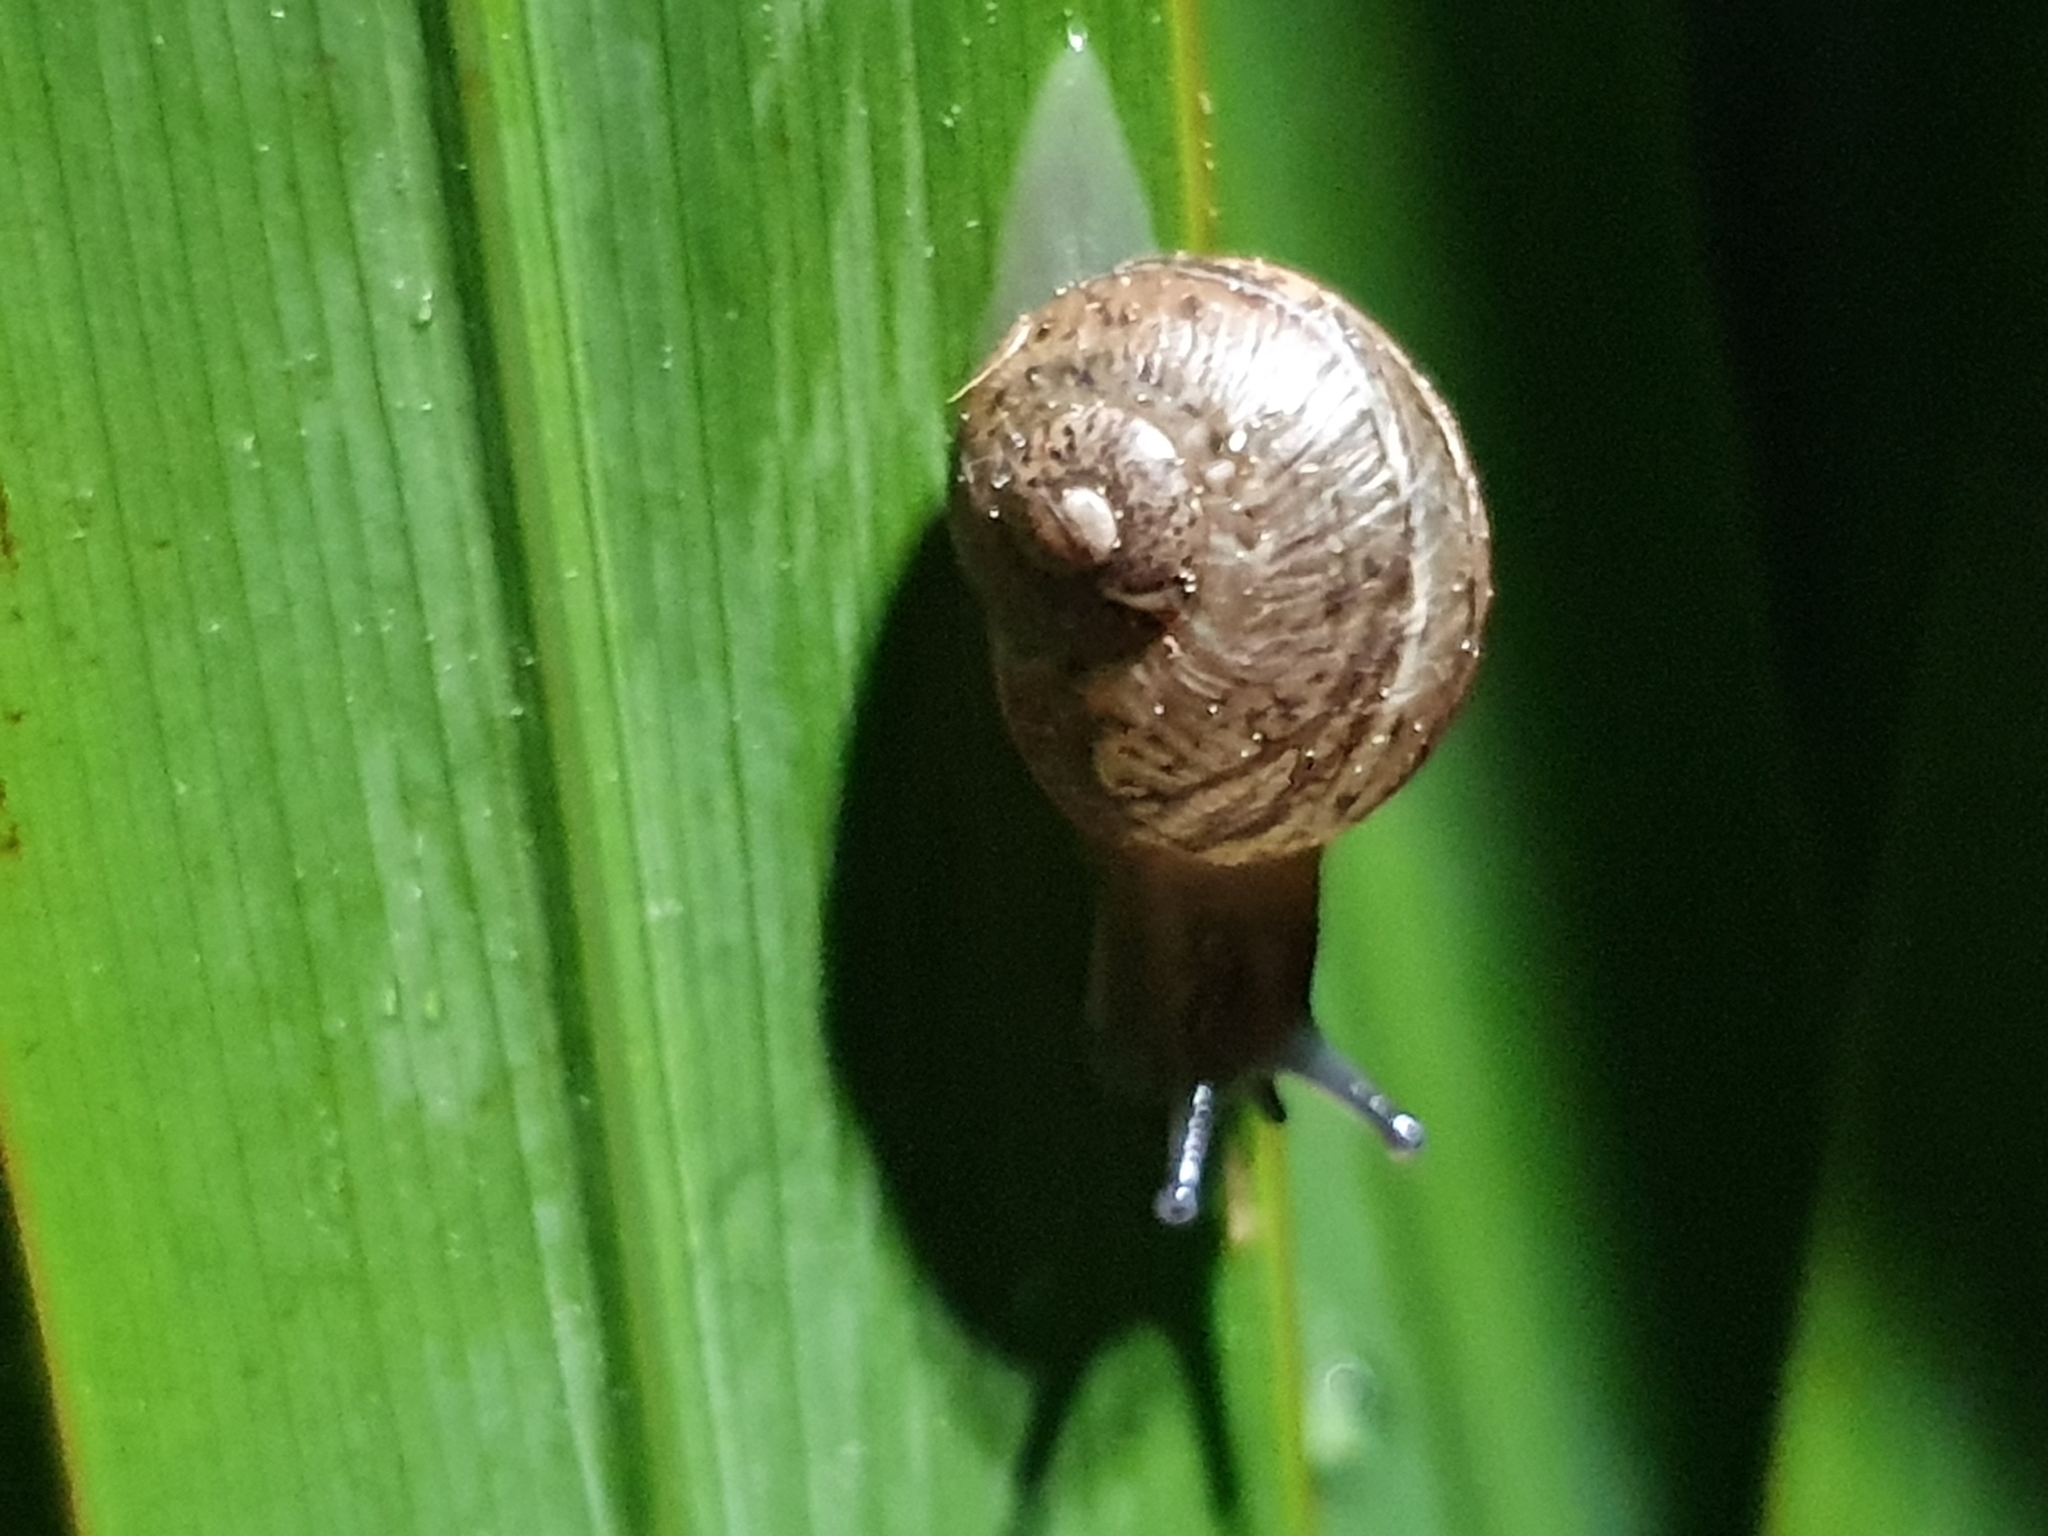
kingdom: Animalia
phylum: Mollusca
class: Gastropoda
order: Stylommatophora
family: Helicidae
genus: Cornu
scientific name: Cornu aspersum
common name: Brown garden snail
